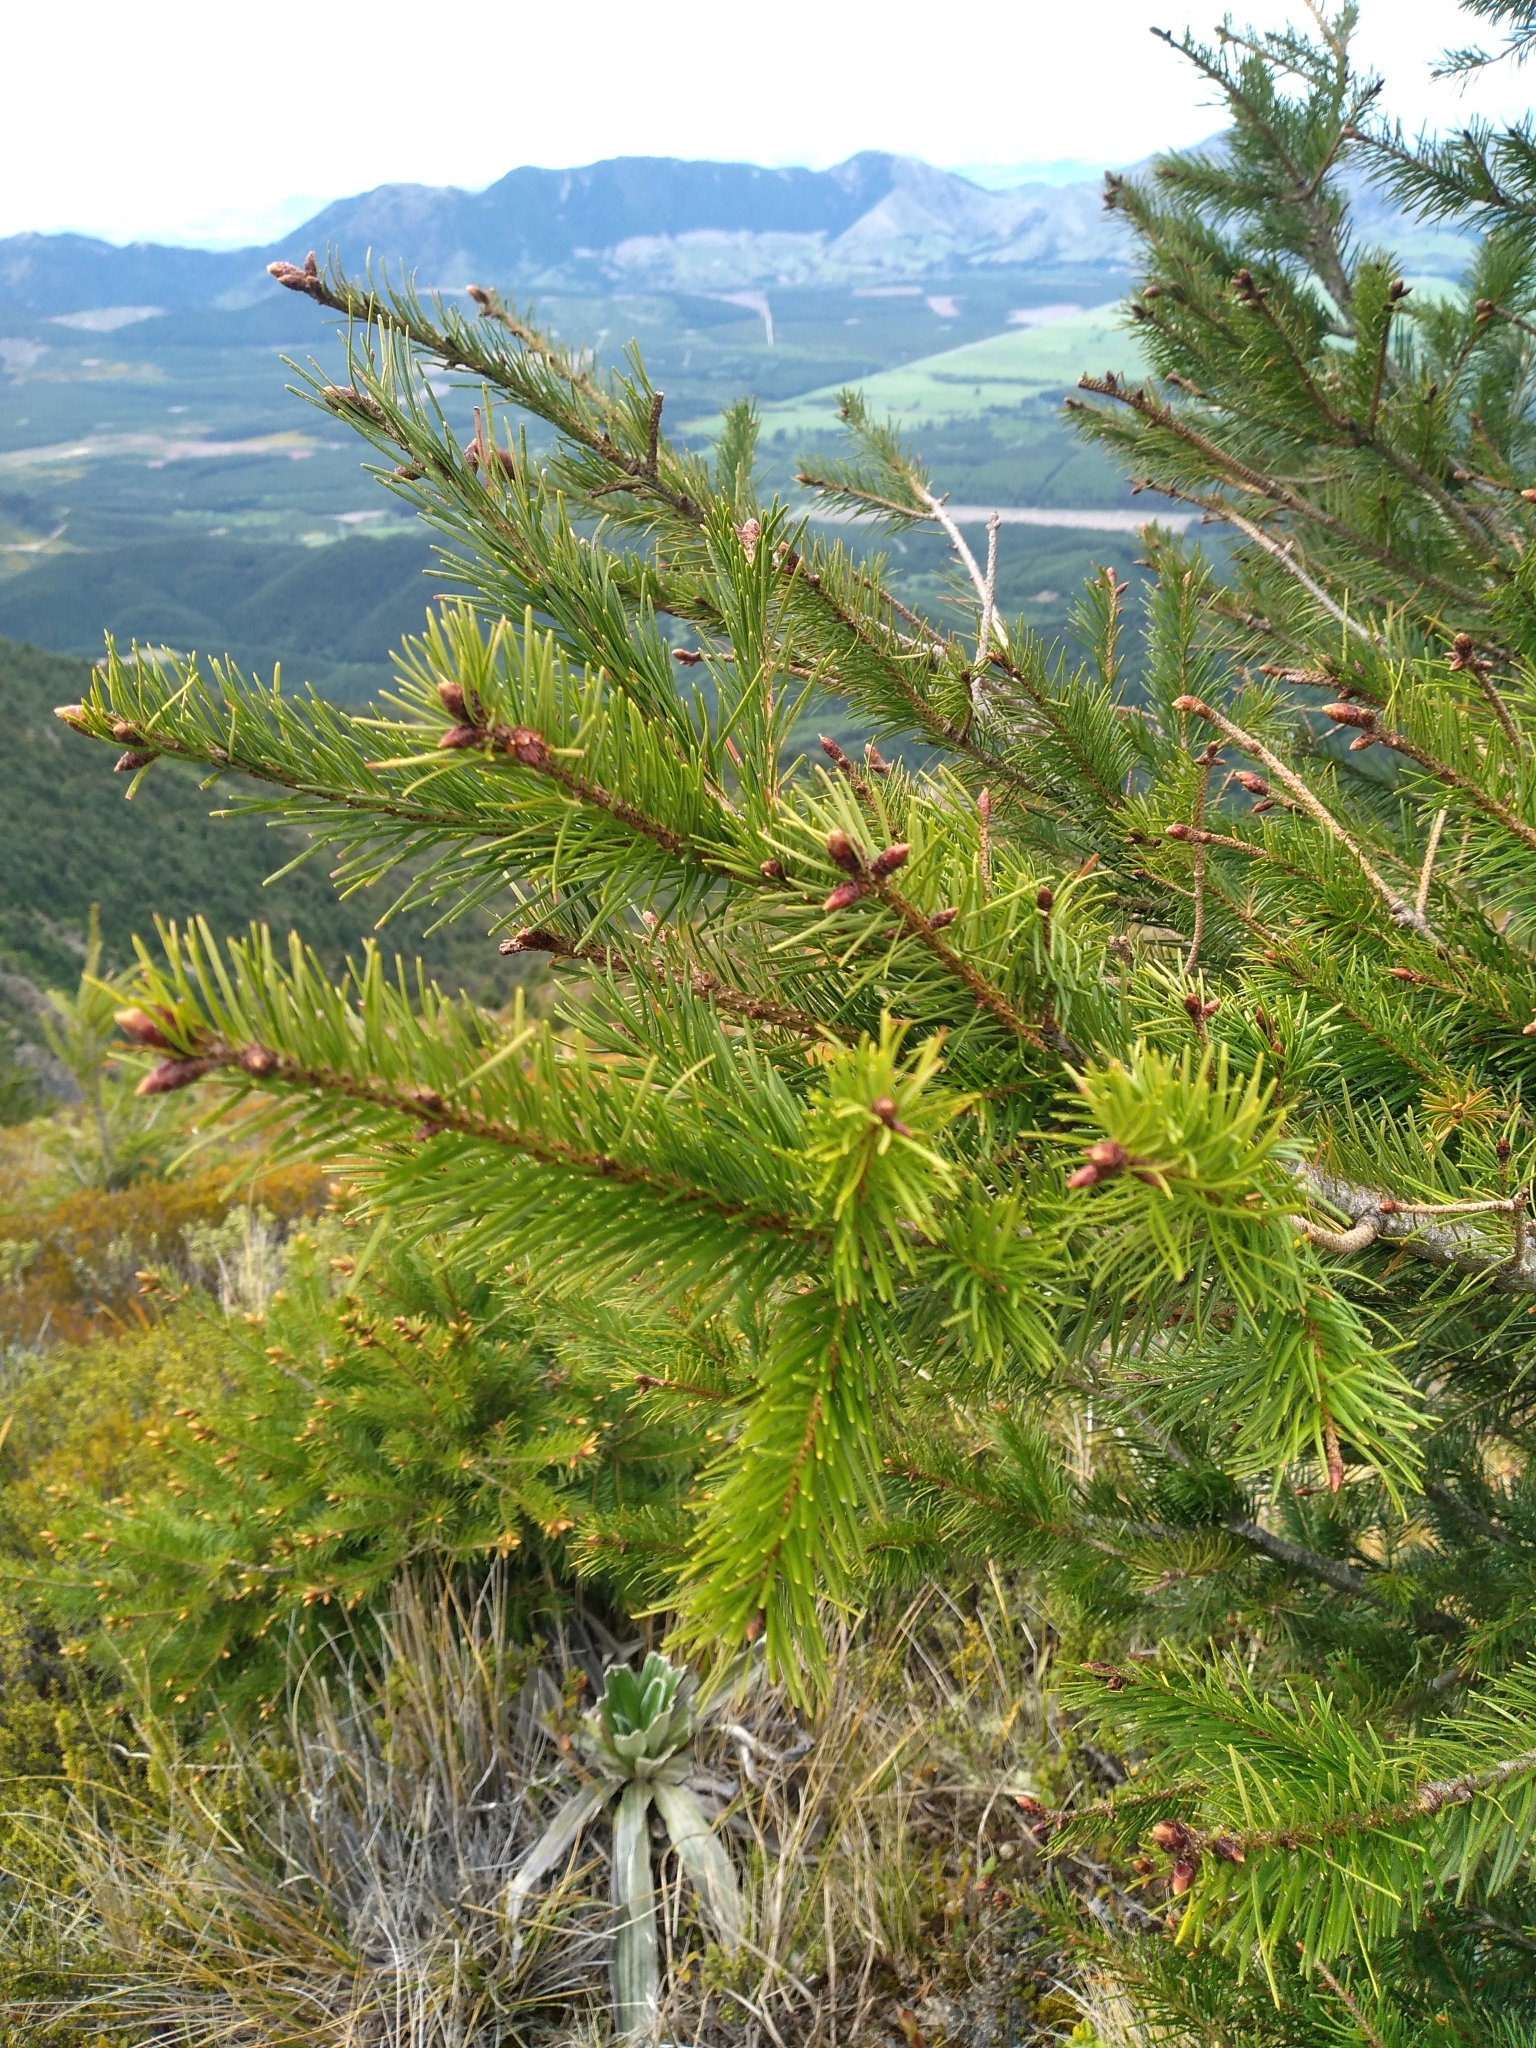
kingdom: Plantae
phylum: Tracheophyta
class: Pinopsida
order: Pinales
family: Pinaceae
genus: Pseudotsuga
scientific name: Pseudotsuga menziesii
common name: Douglas fir
